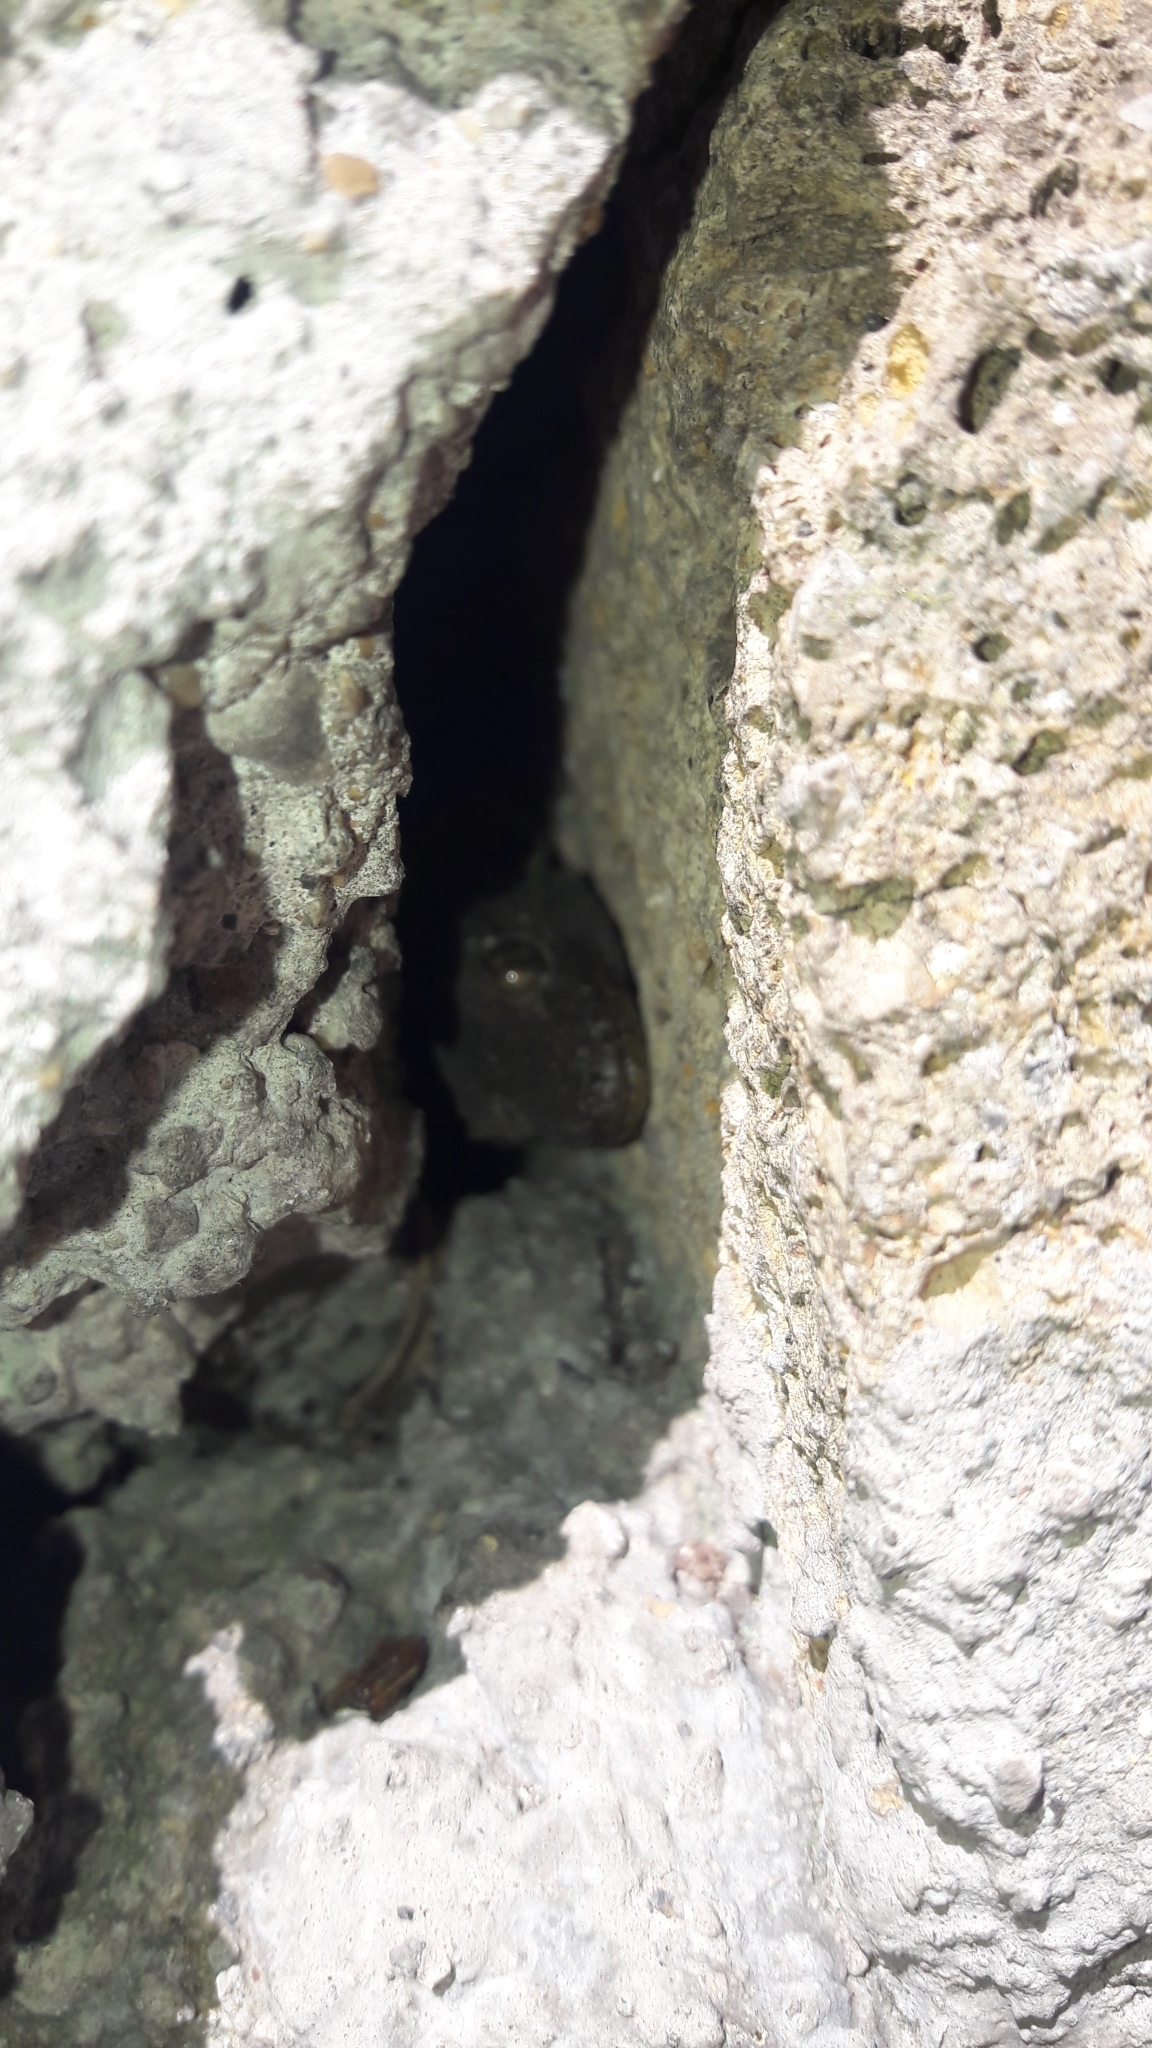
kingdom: Animalia
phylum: Chordata
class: Squamata
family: Phyllodactylidae
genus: Tarentola
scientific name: Tarentola mauritanica
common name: Moorish gecko
